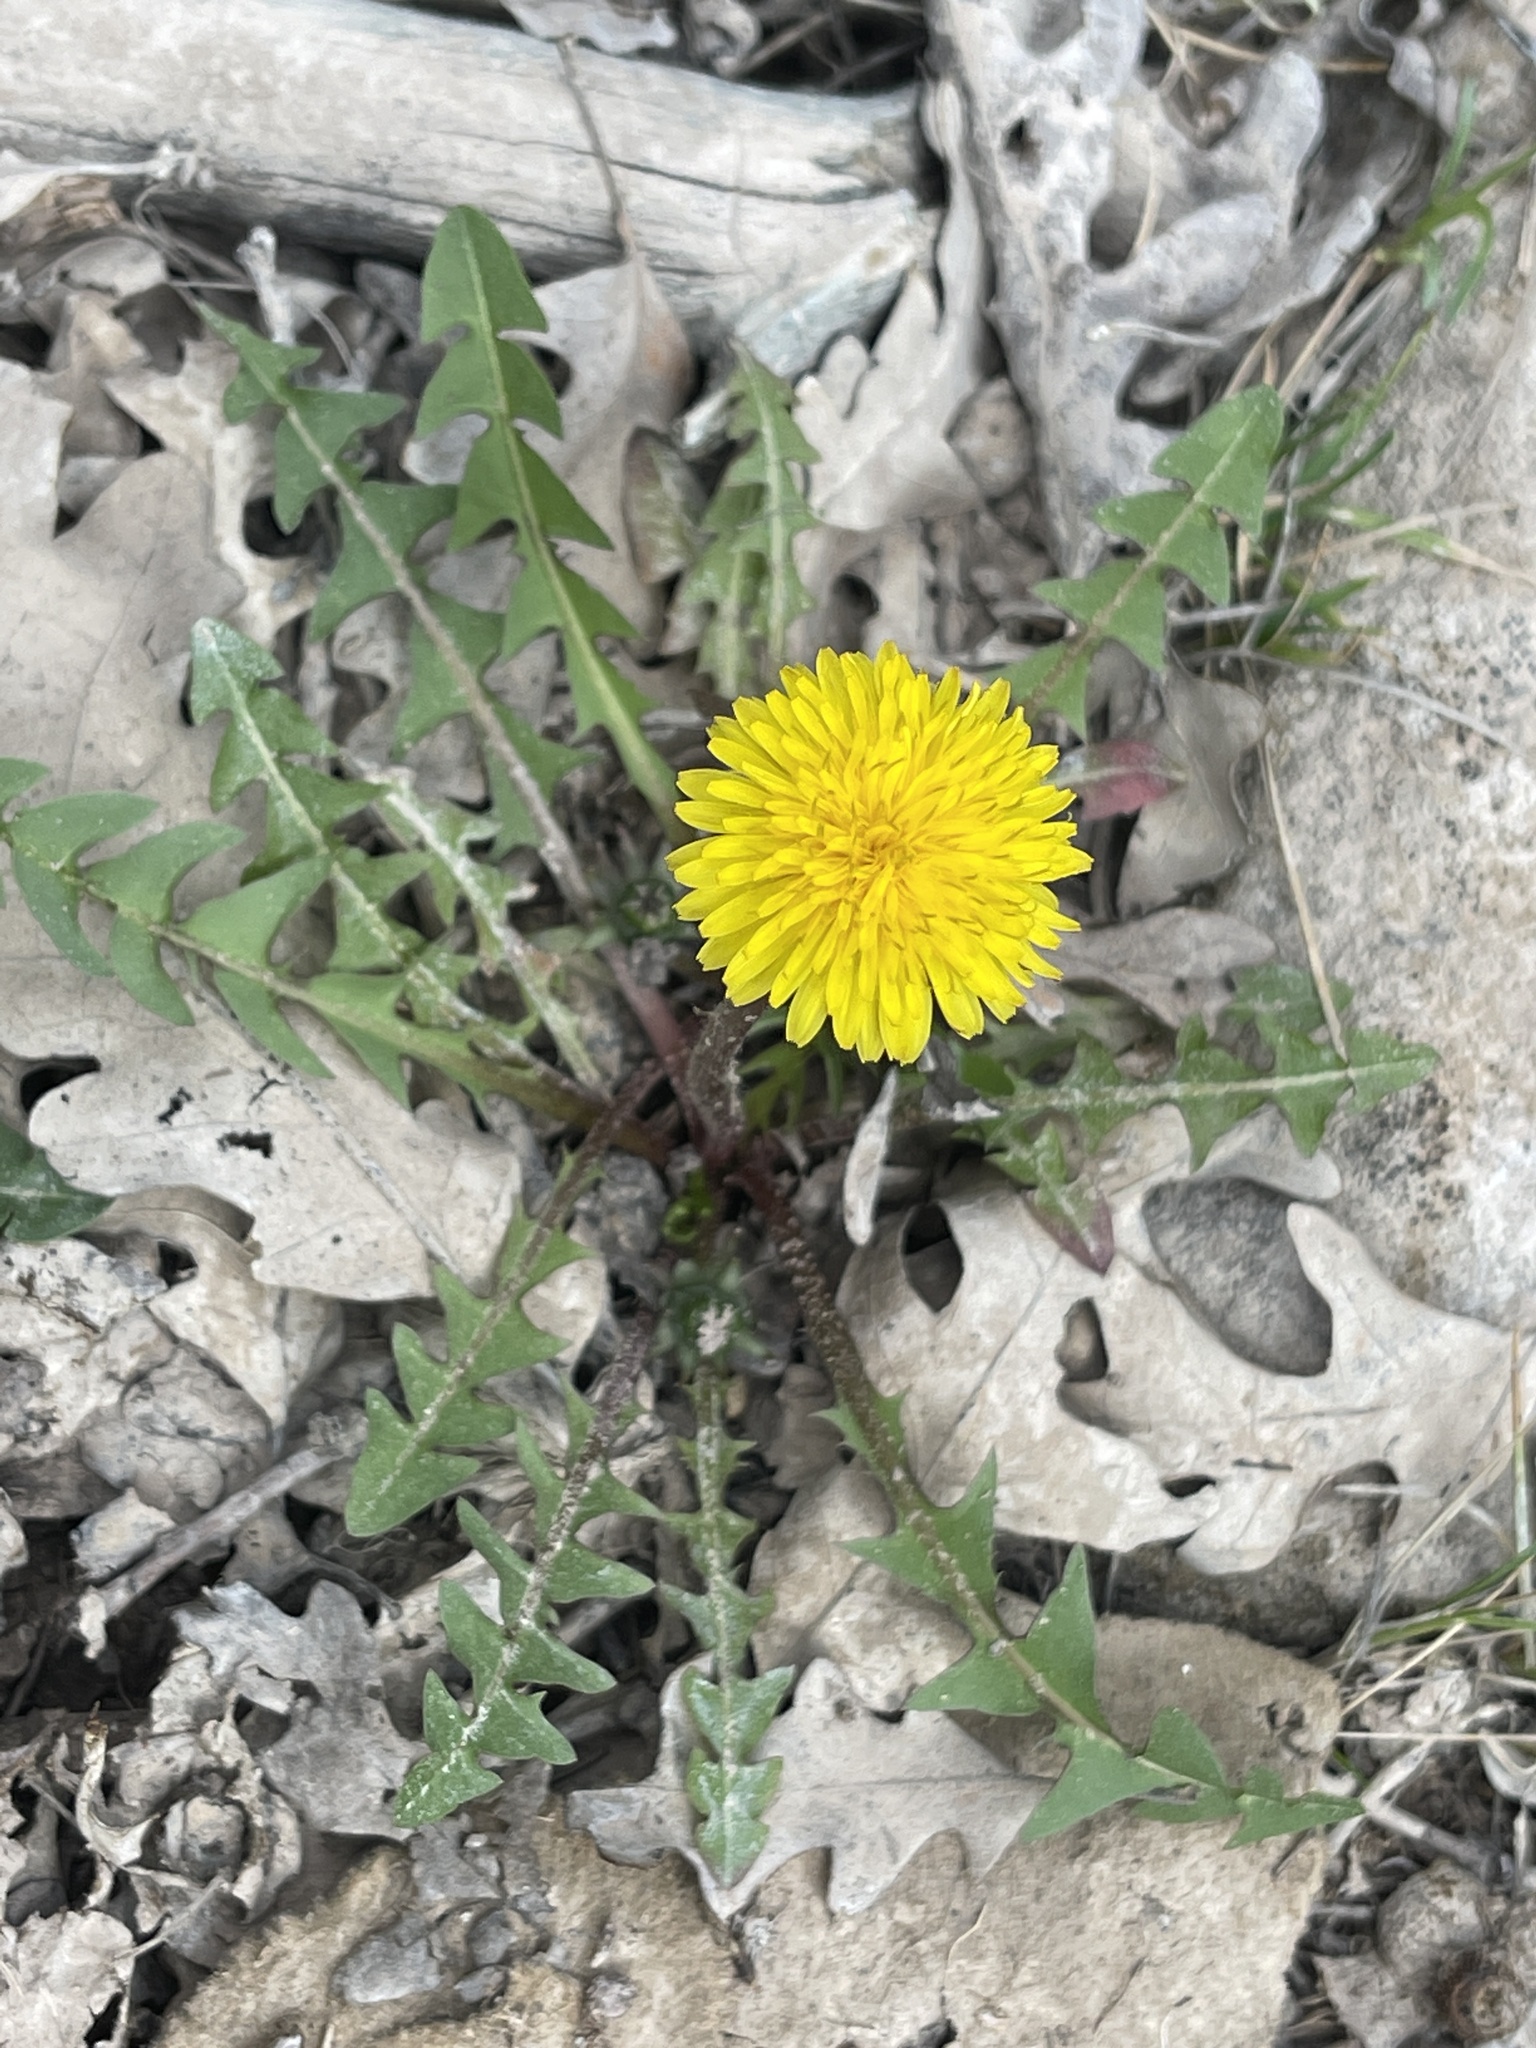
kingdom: Plantae
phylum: Tracheophyta
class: Magnoliopsida
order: Asterales
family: Asteraceae
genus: Taraxacum
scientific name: Taraxacum officinale
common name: Common dandelion
